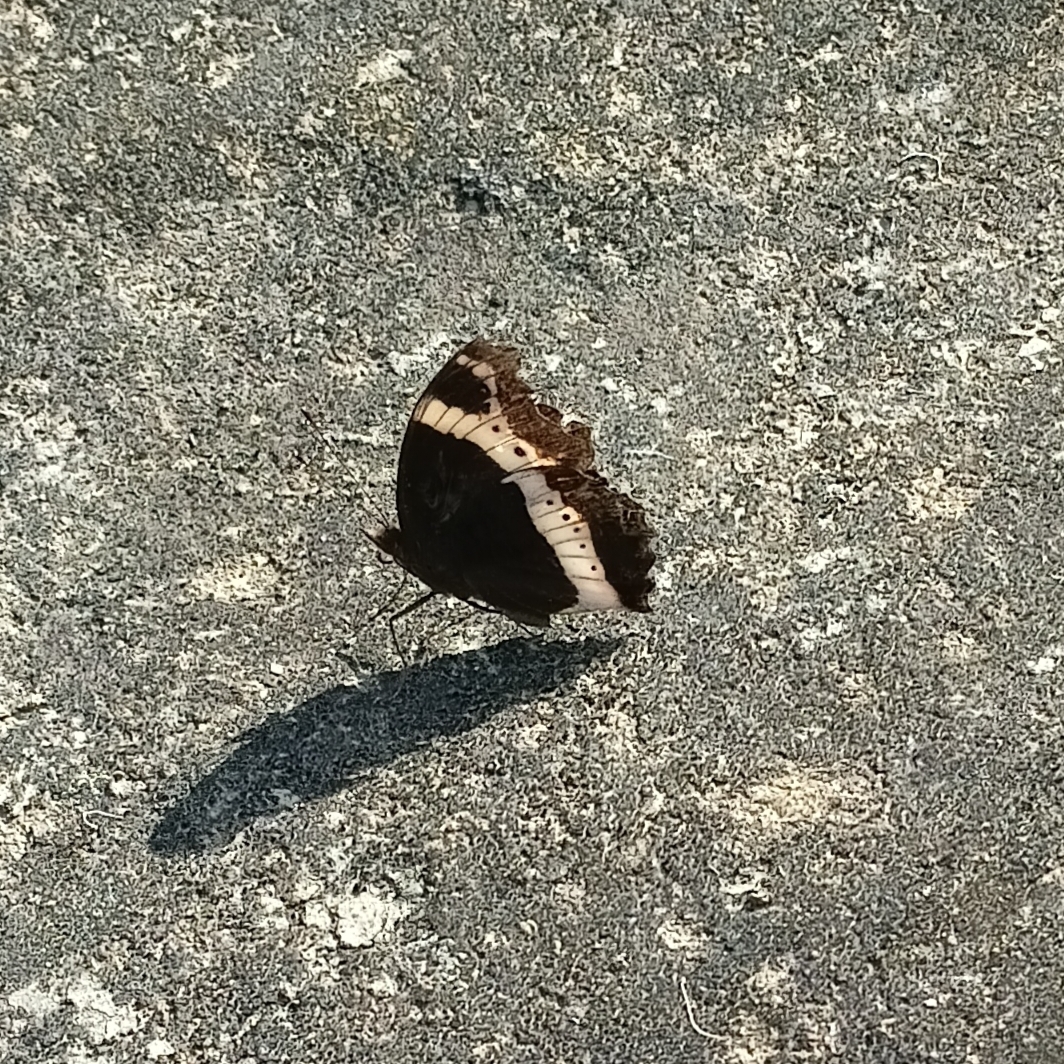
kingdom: Animalia
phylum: Arthropoda
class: Insecta
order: Lepidoptera
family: Nymphalidae
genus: Junonia
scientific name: Junonia archesia
